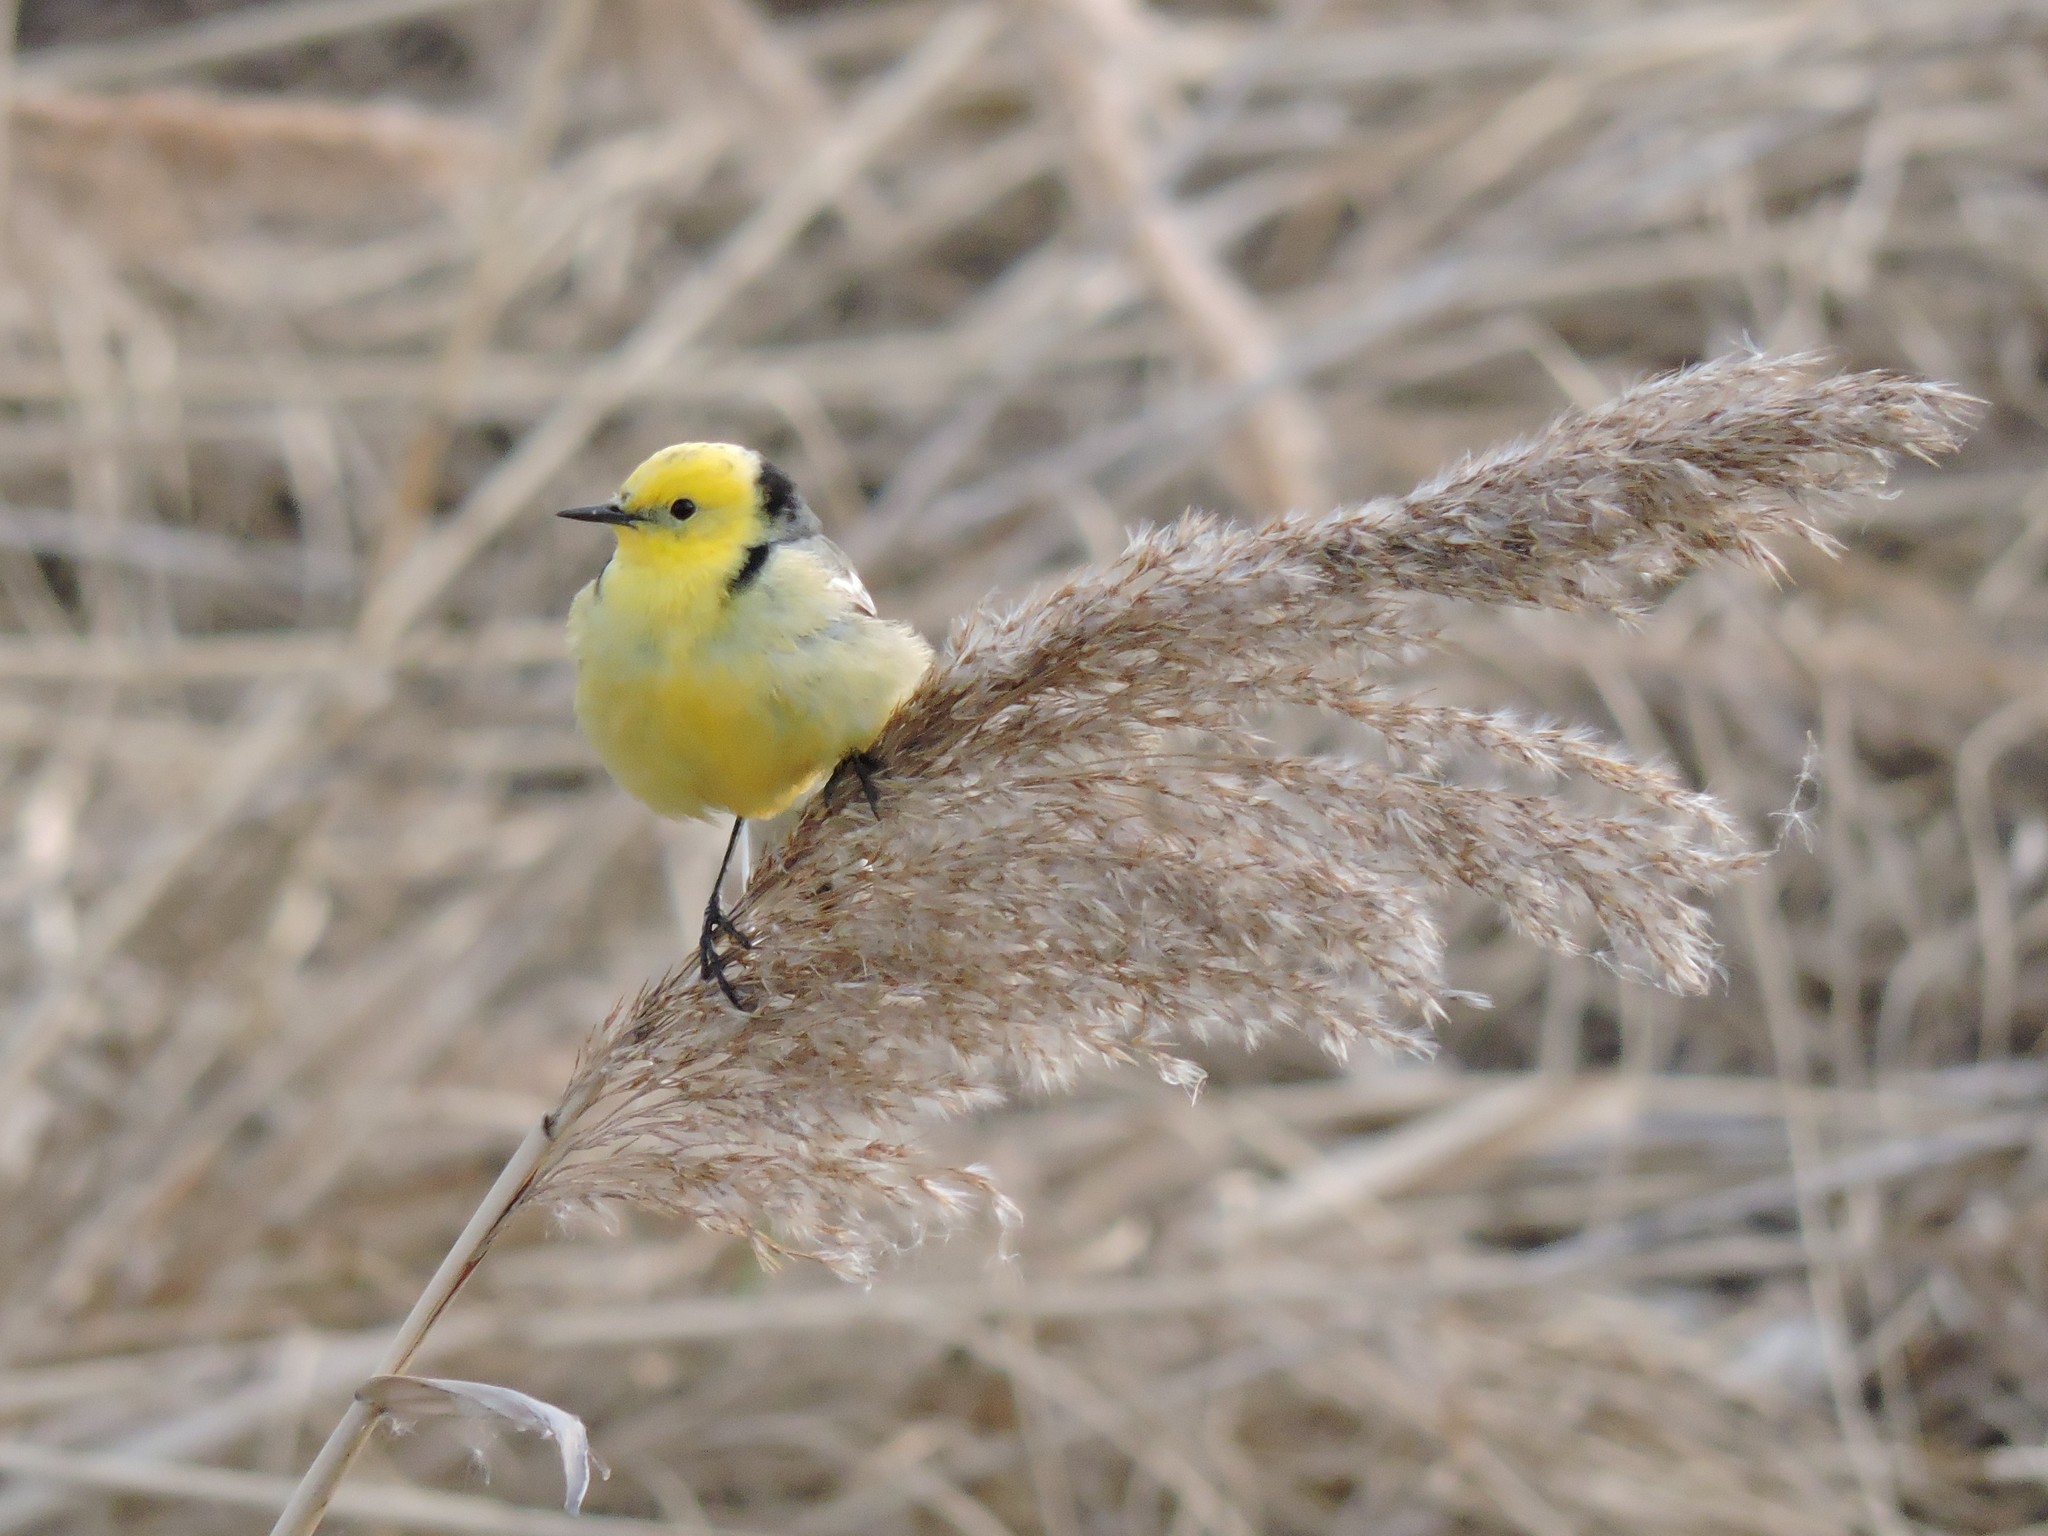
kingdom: Animalia
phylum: Chordata
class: Aves
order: Passeriformes
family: Motacillidae
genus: Motacilla
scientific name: Motacilla citreola
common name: Citrine wagtail
